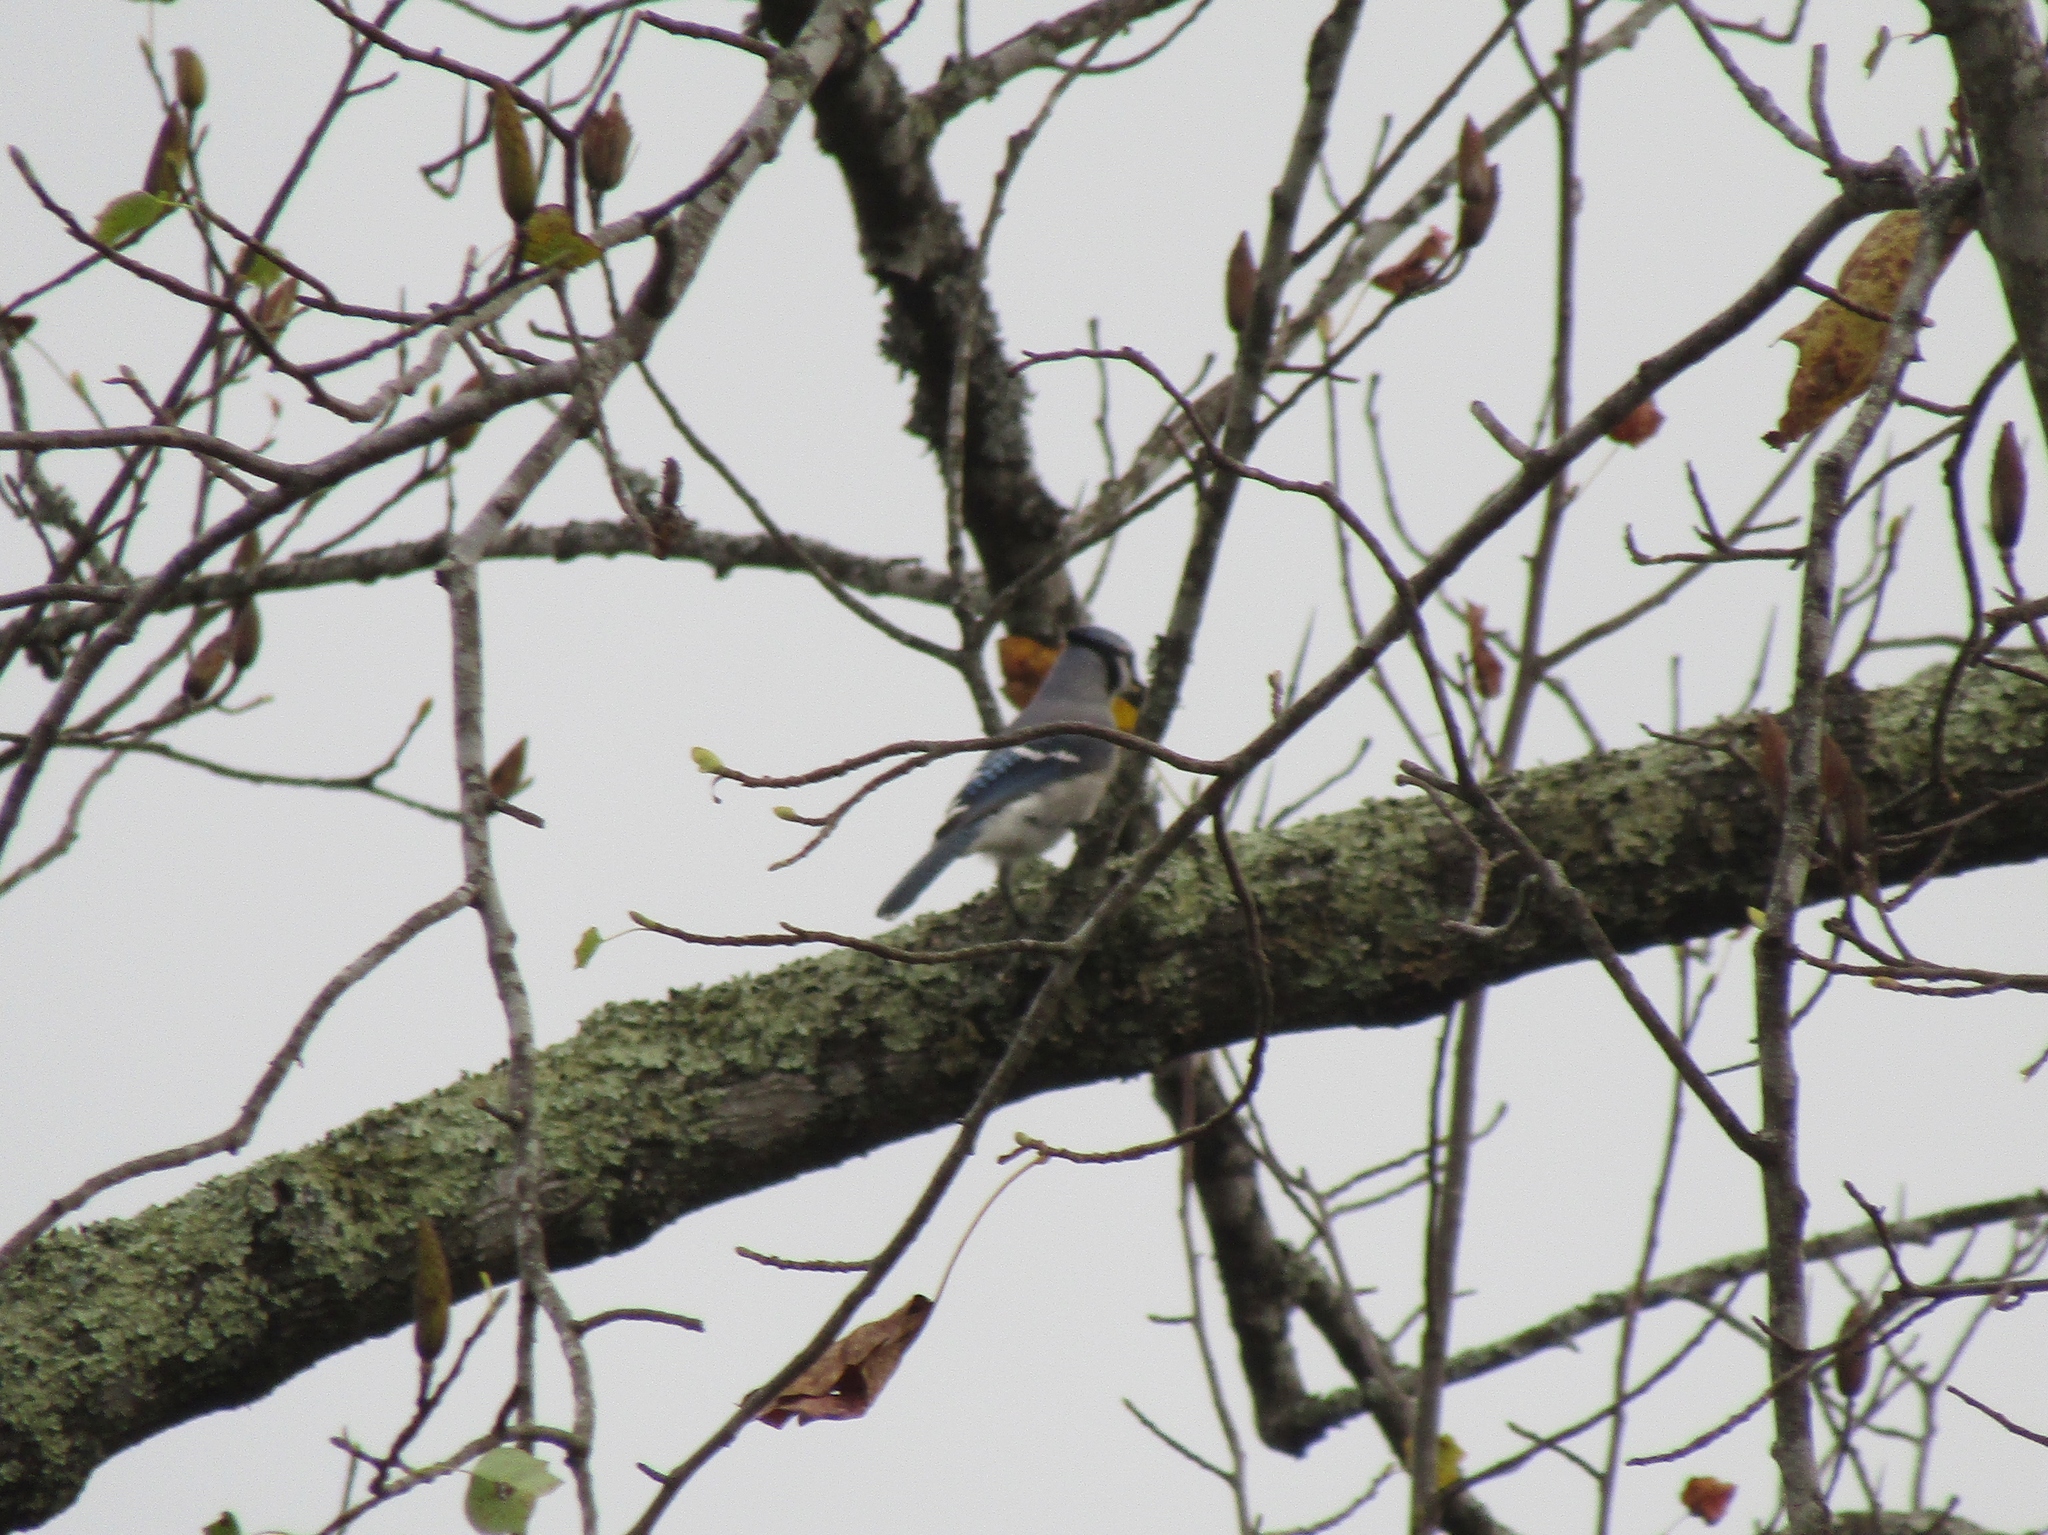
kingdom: Animalia
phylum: Chordata
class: Aves
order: Passeriformes
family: Corvidae
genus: Cyanocitta
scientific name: Cyanocitta cristata
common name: Blue jay
